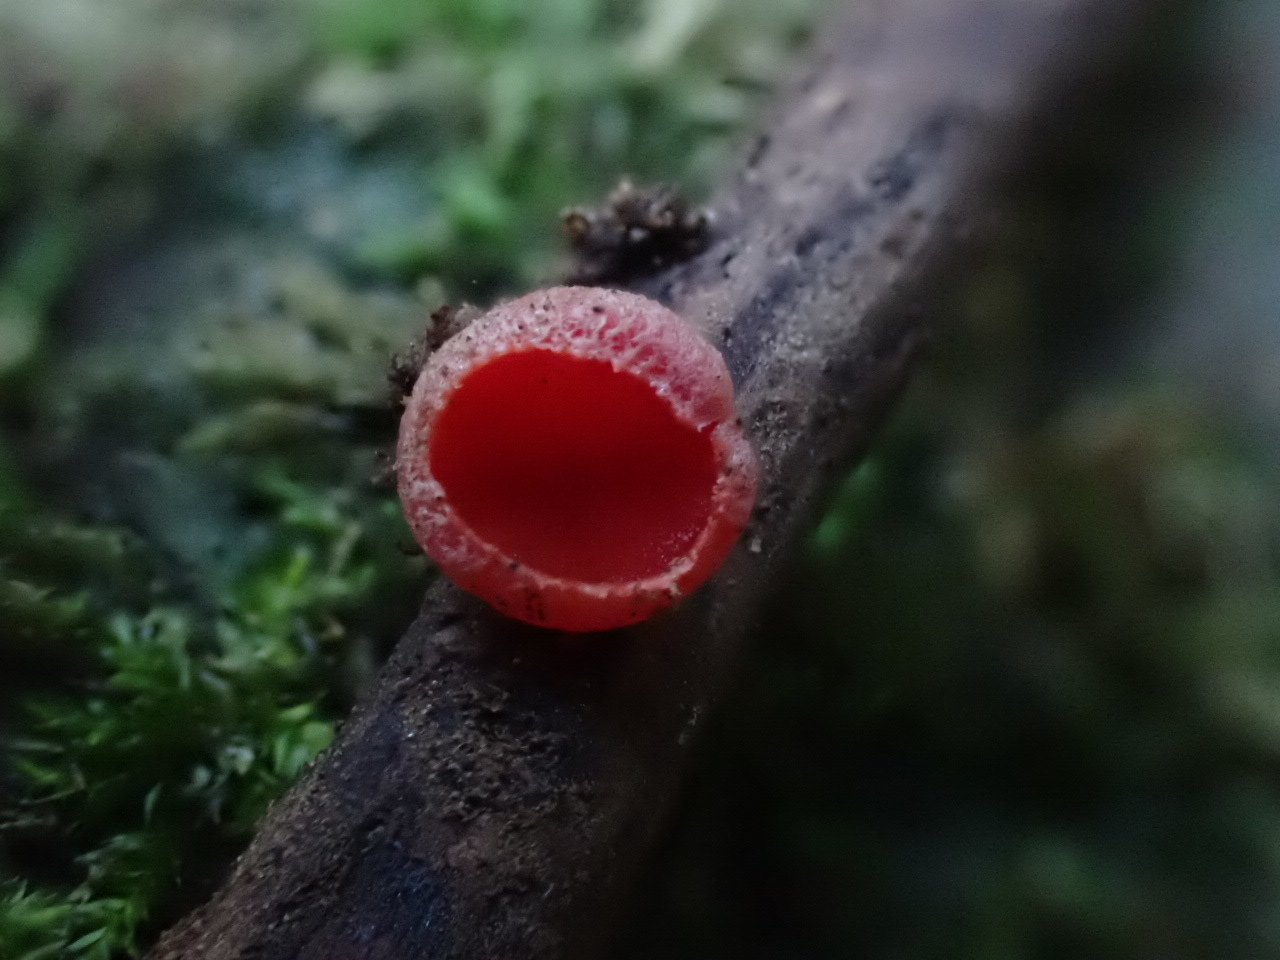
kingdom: Fungi
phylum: Ascomycota
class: Pezizomycetes
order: Pezizales
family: Sarcoscyphaceae
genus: Sarcoscypha
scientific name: Sarcoscypha
